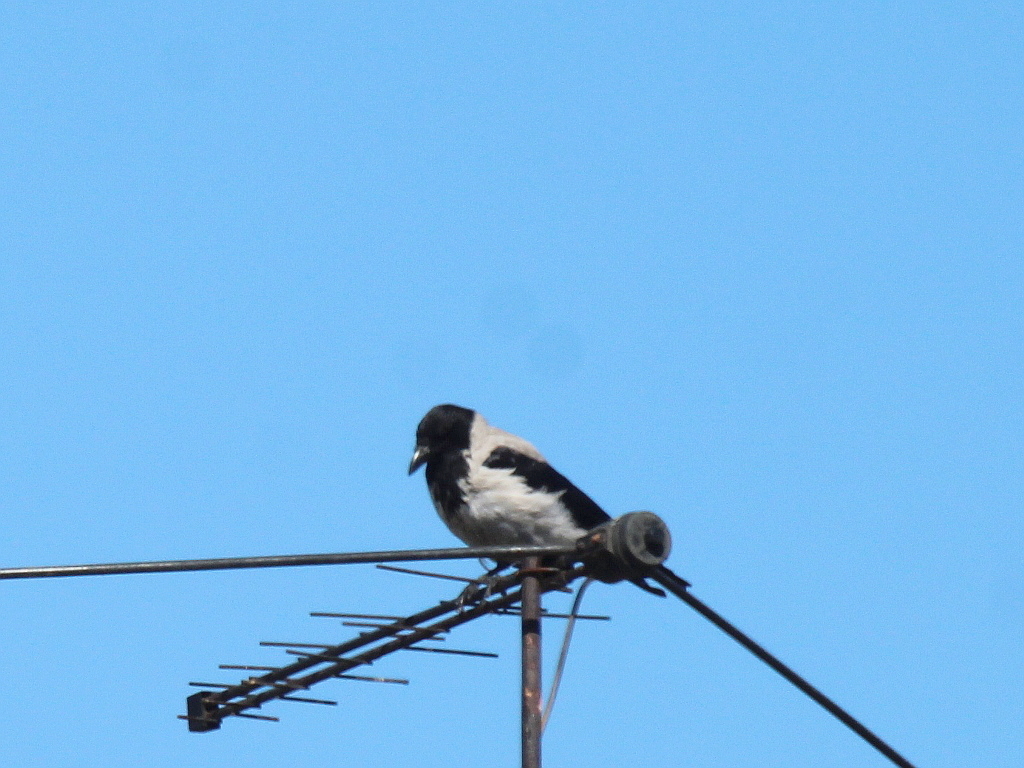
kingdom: Animalia
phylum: Chordata
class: Aves
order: Passeriformes
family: Corvidae
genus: Corvus
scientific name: Corvus cornix
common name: Hooded crow
